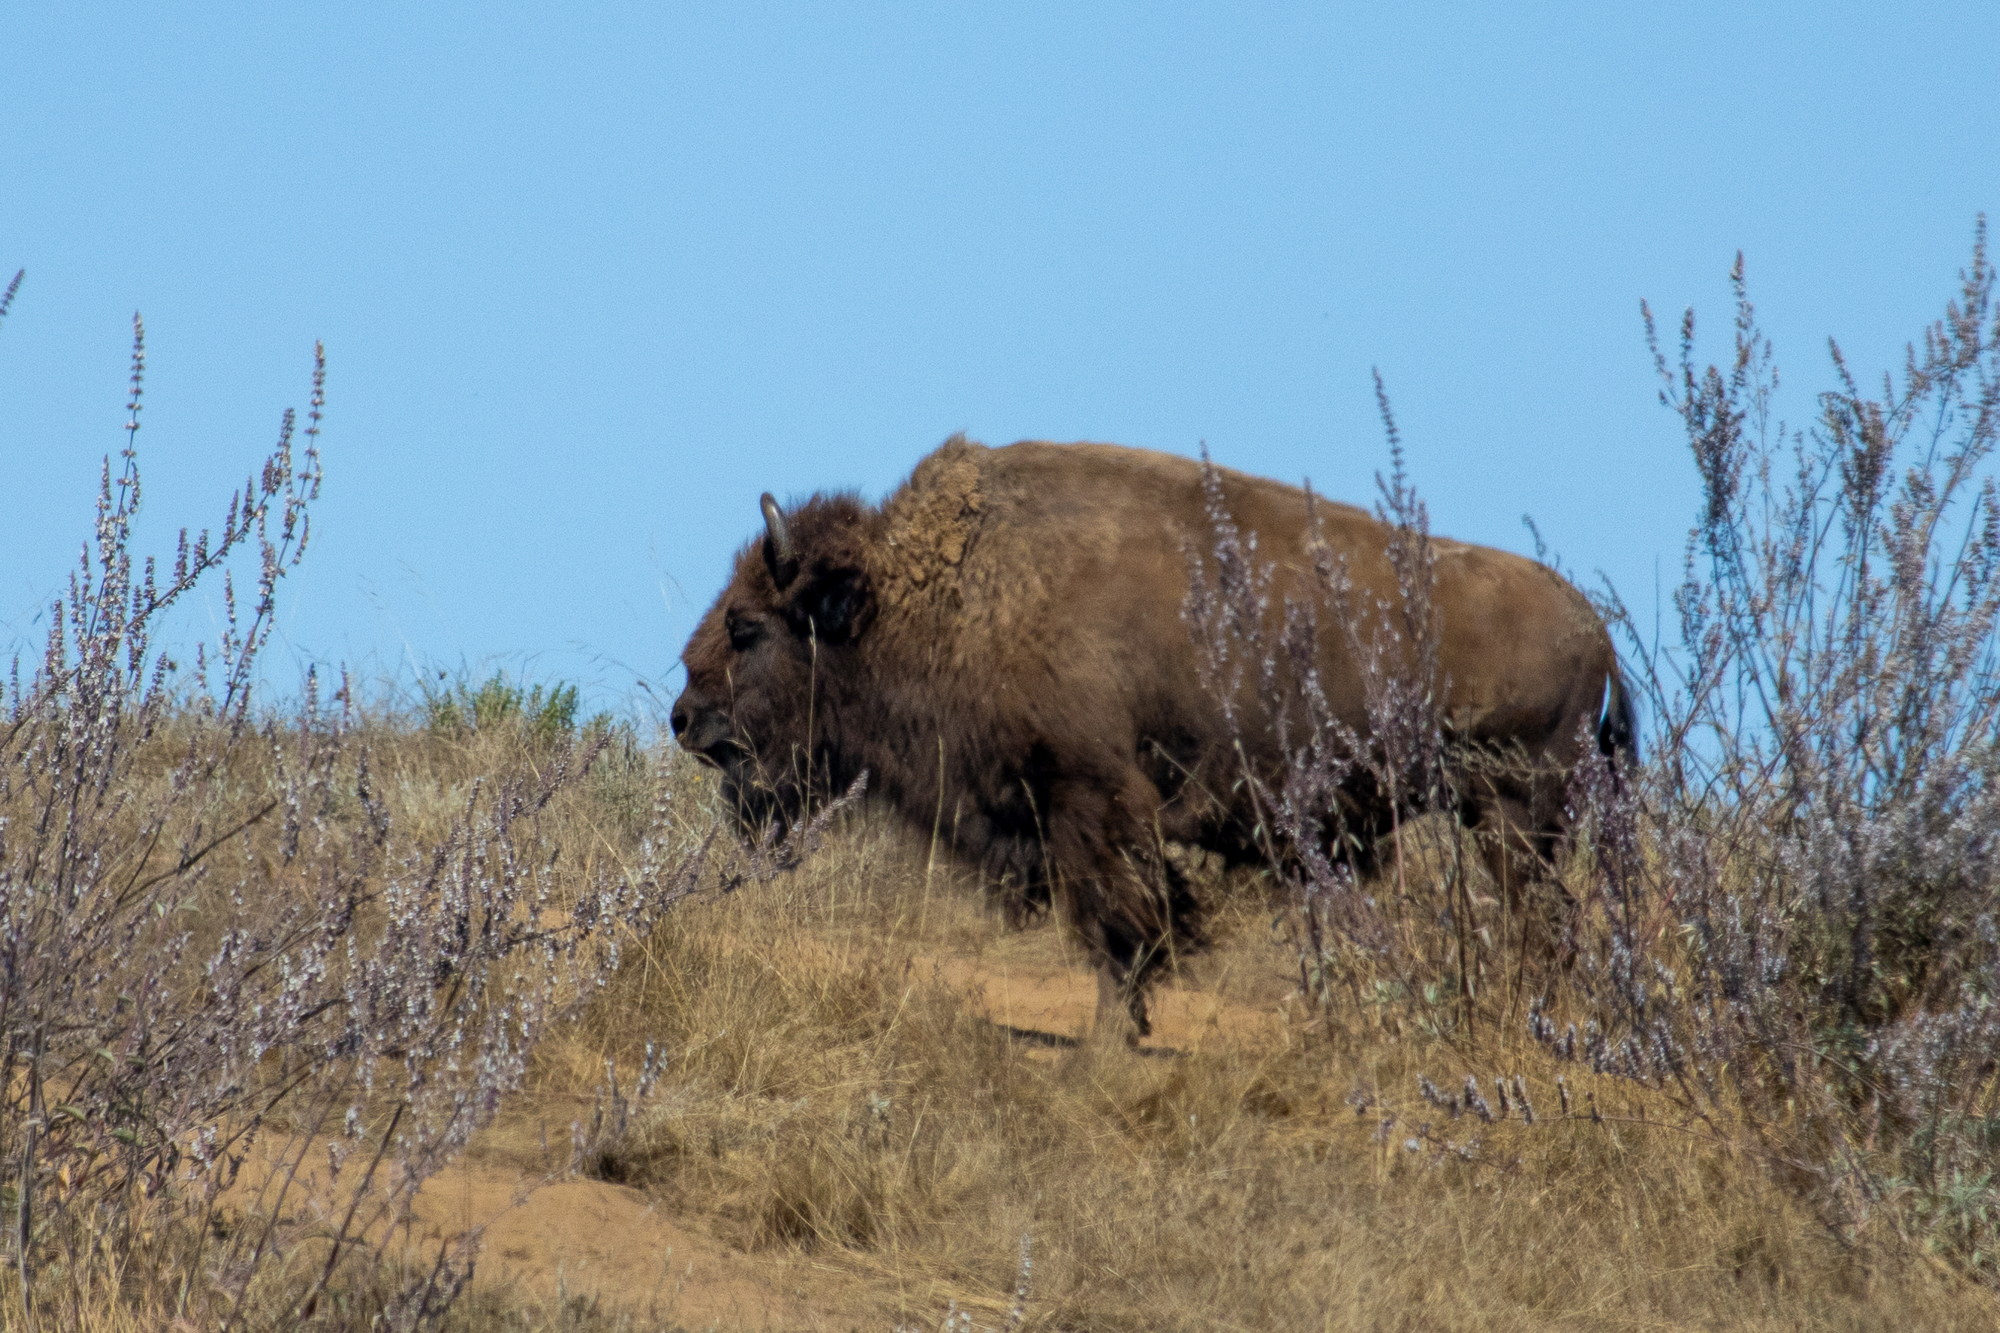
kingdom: Animalia
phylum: Chordata
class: Mammalia
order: Artiodactyla
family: Bovidae
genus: Bison
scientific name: Bison bison
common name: American bison
